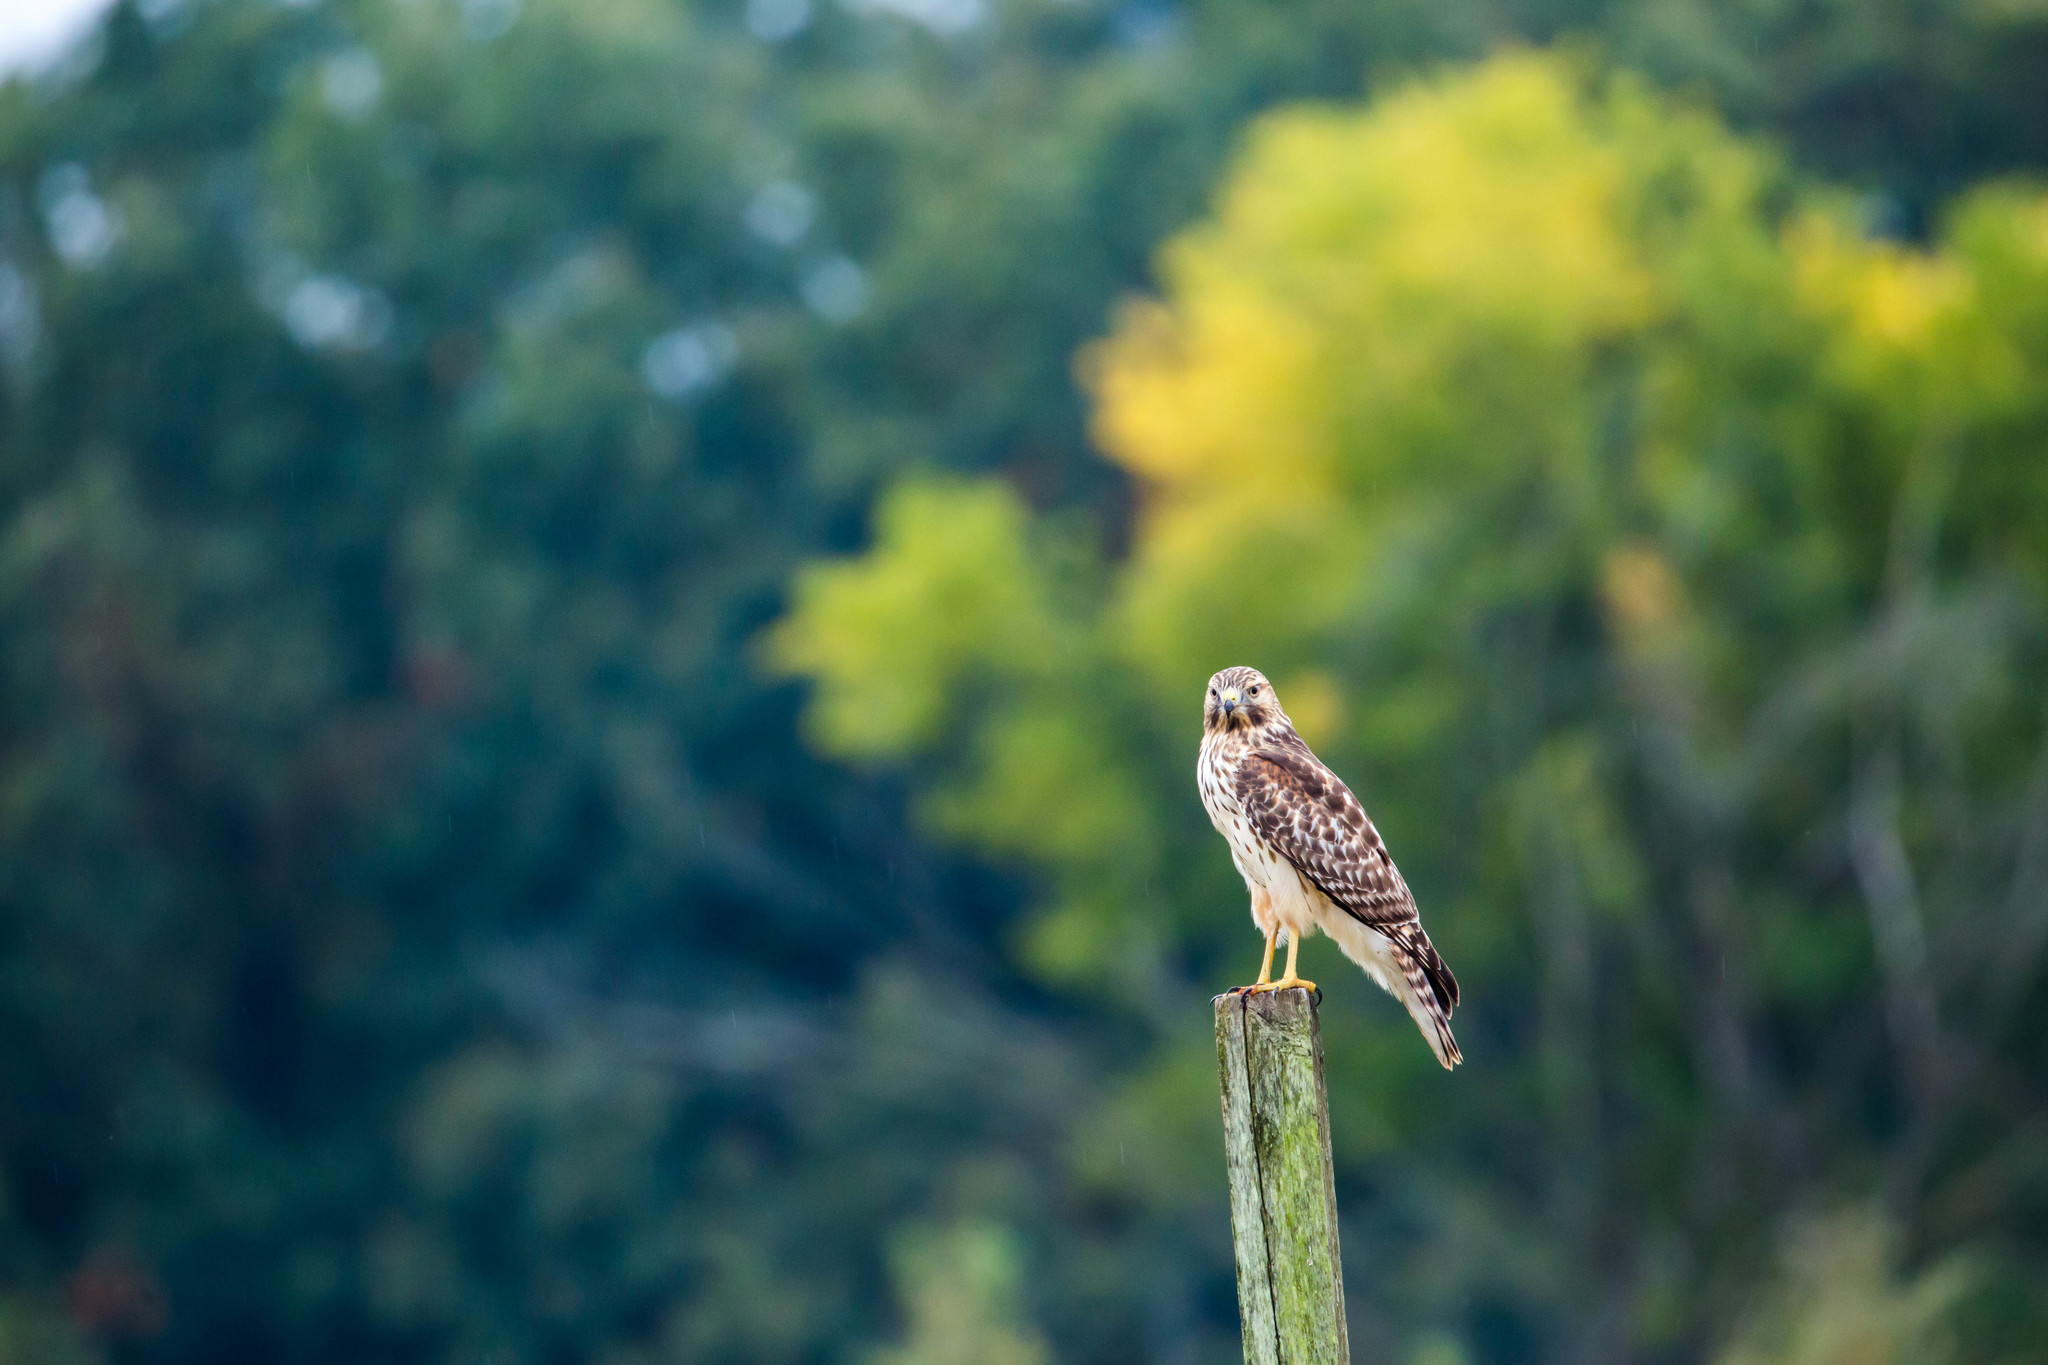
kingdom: Animalia
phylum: Chordata
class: Aves
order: Accipitriformes
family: Accipitridae
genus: Buteo
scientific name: Buteo lineatus
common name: Red-shouldered hawk
